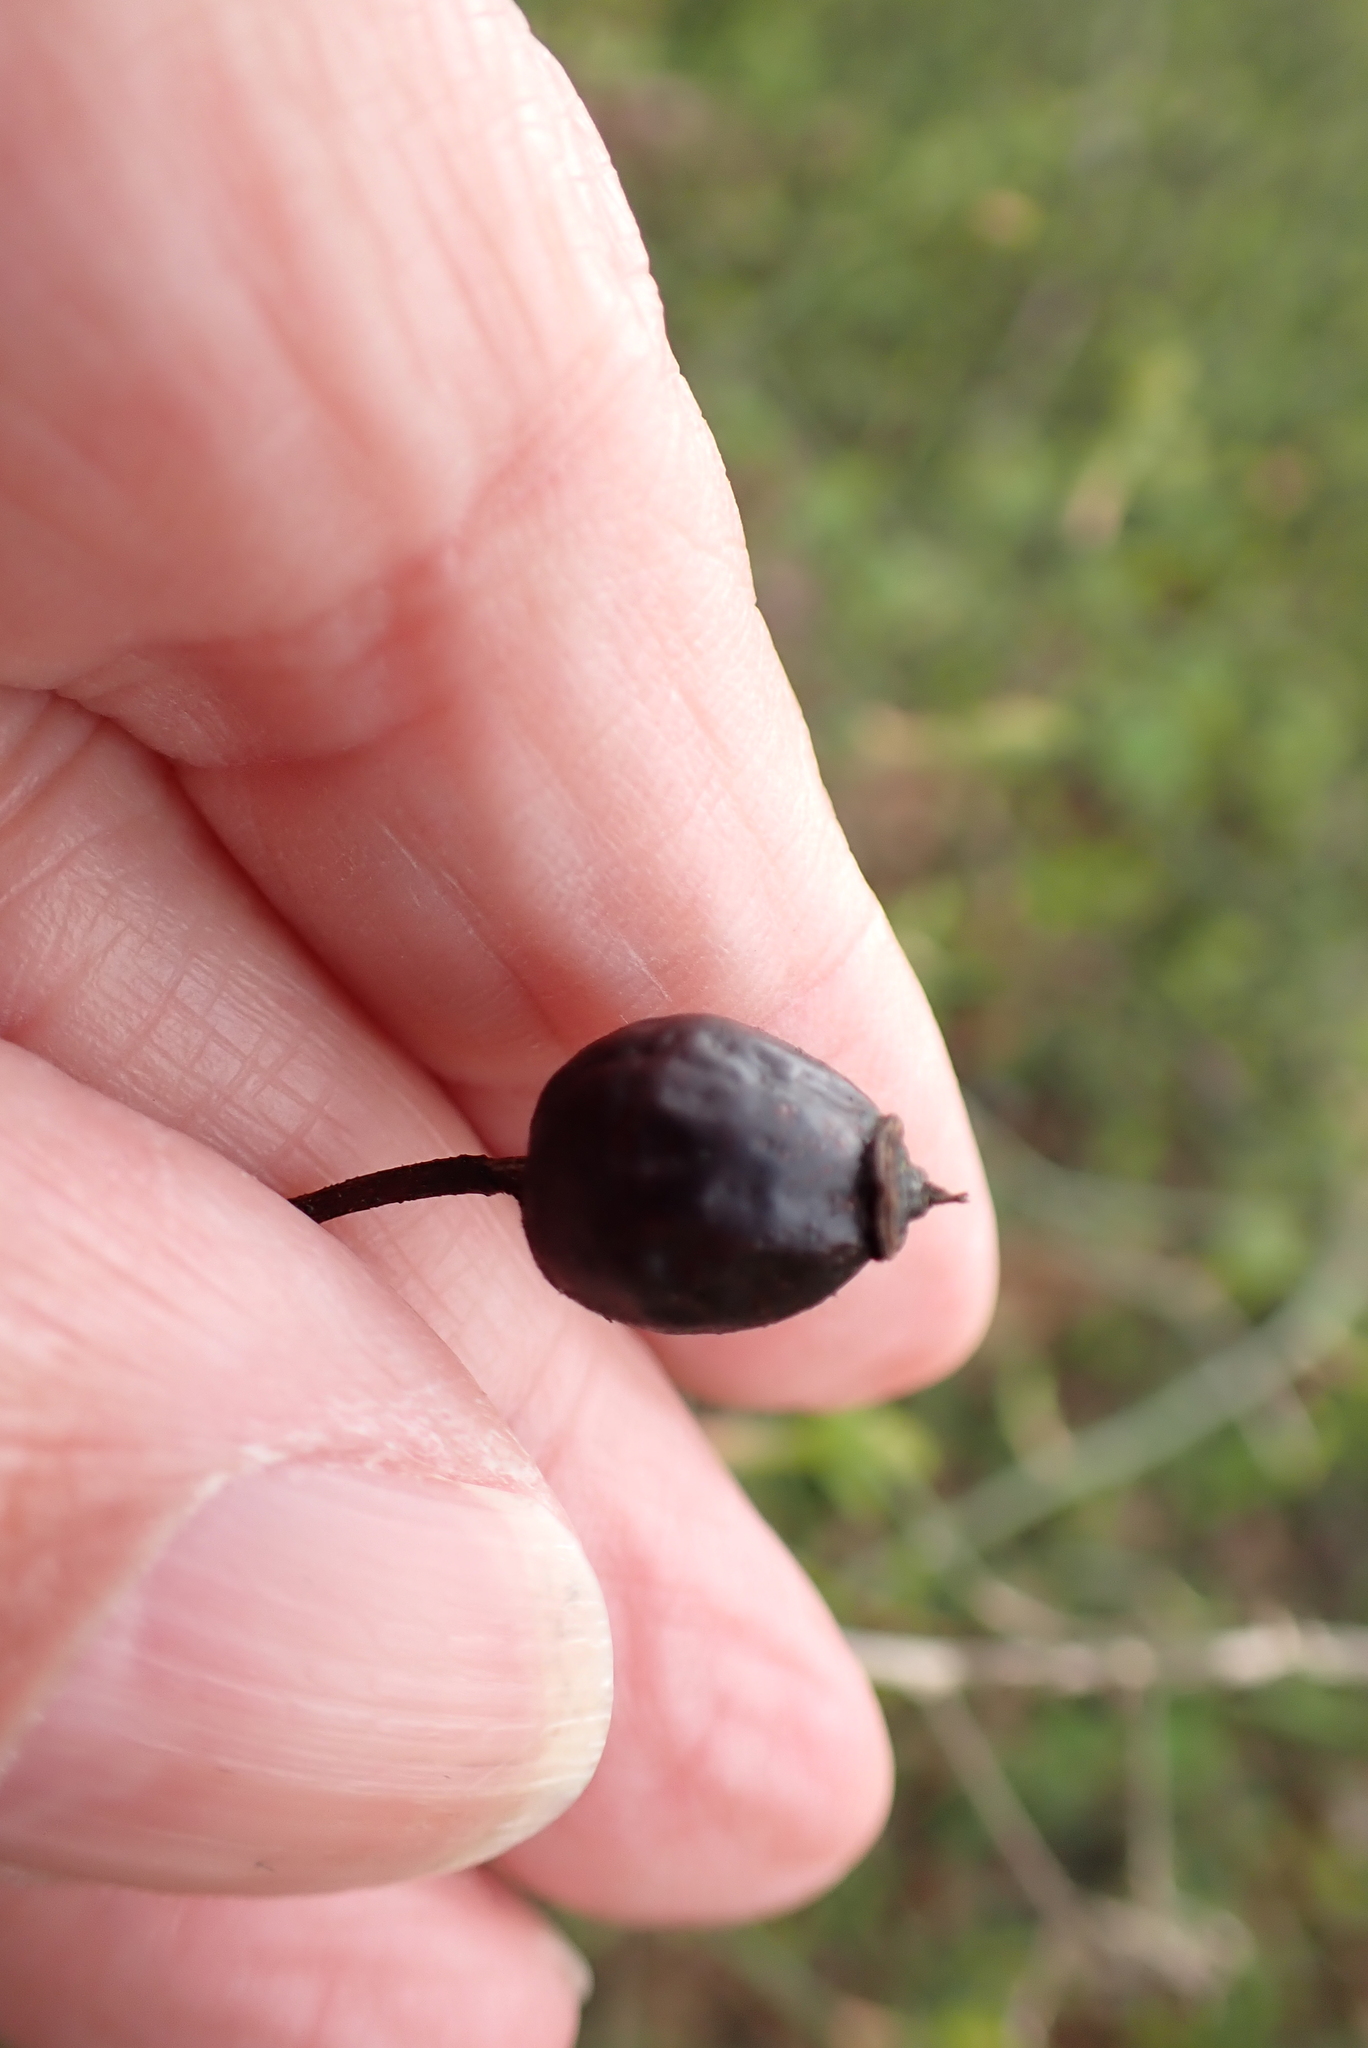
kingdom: Plantae
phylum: Tracheophyta
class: Magnoliopsida
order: Rosales
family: Rosaceae
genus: Rosa
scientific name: Rosa arvensis
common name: Field rose
